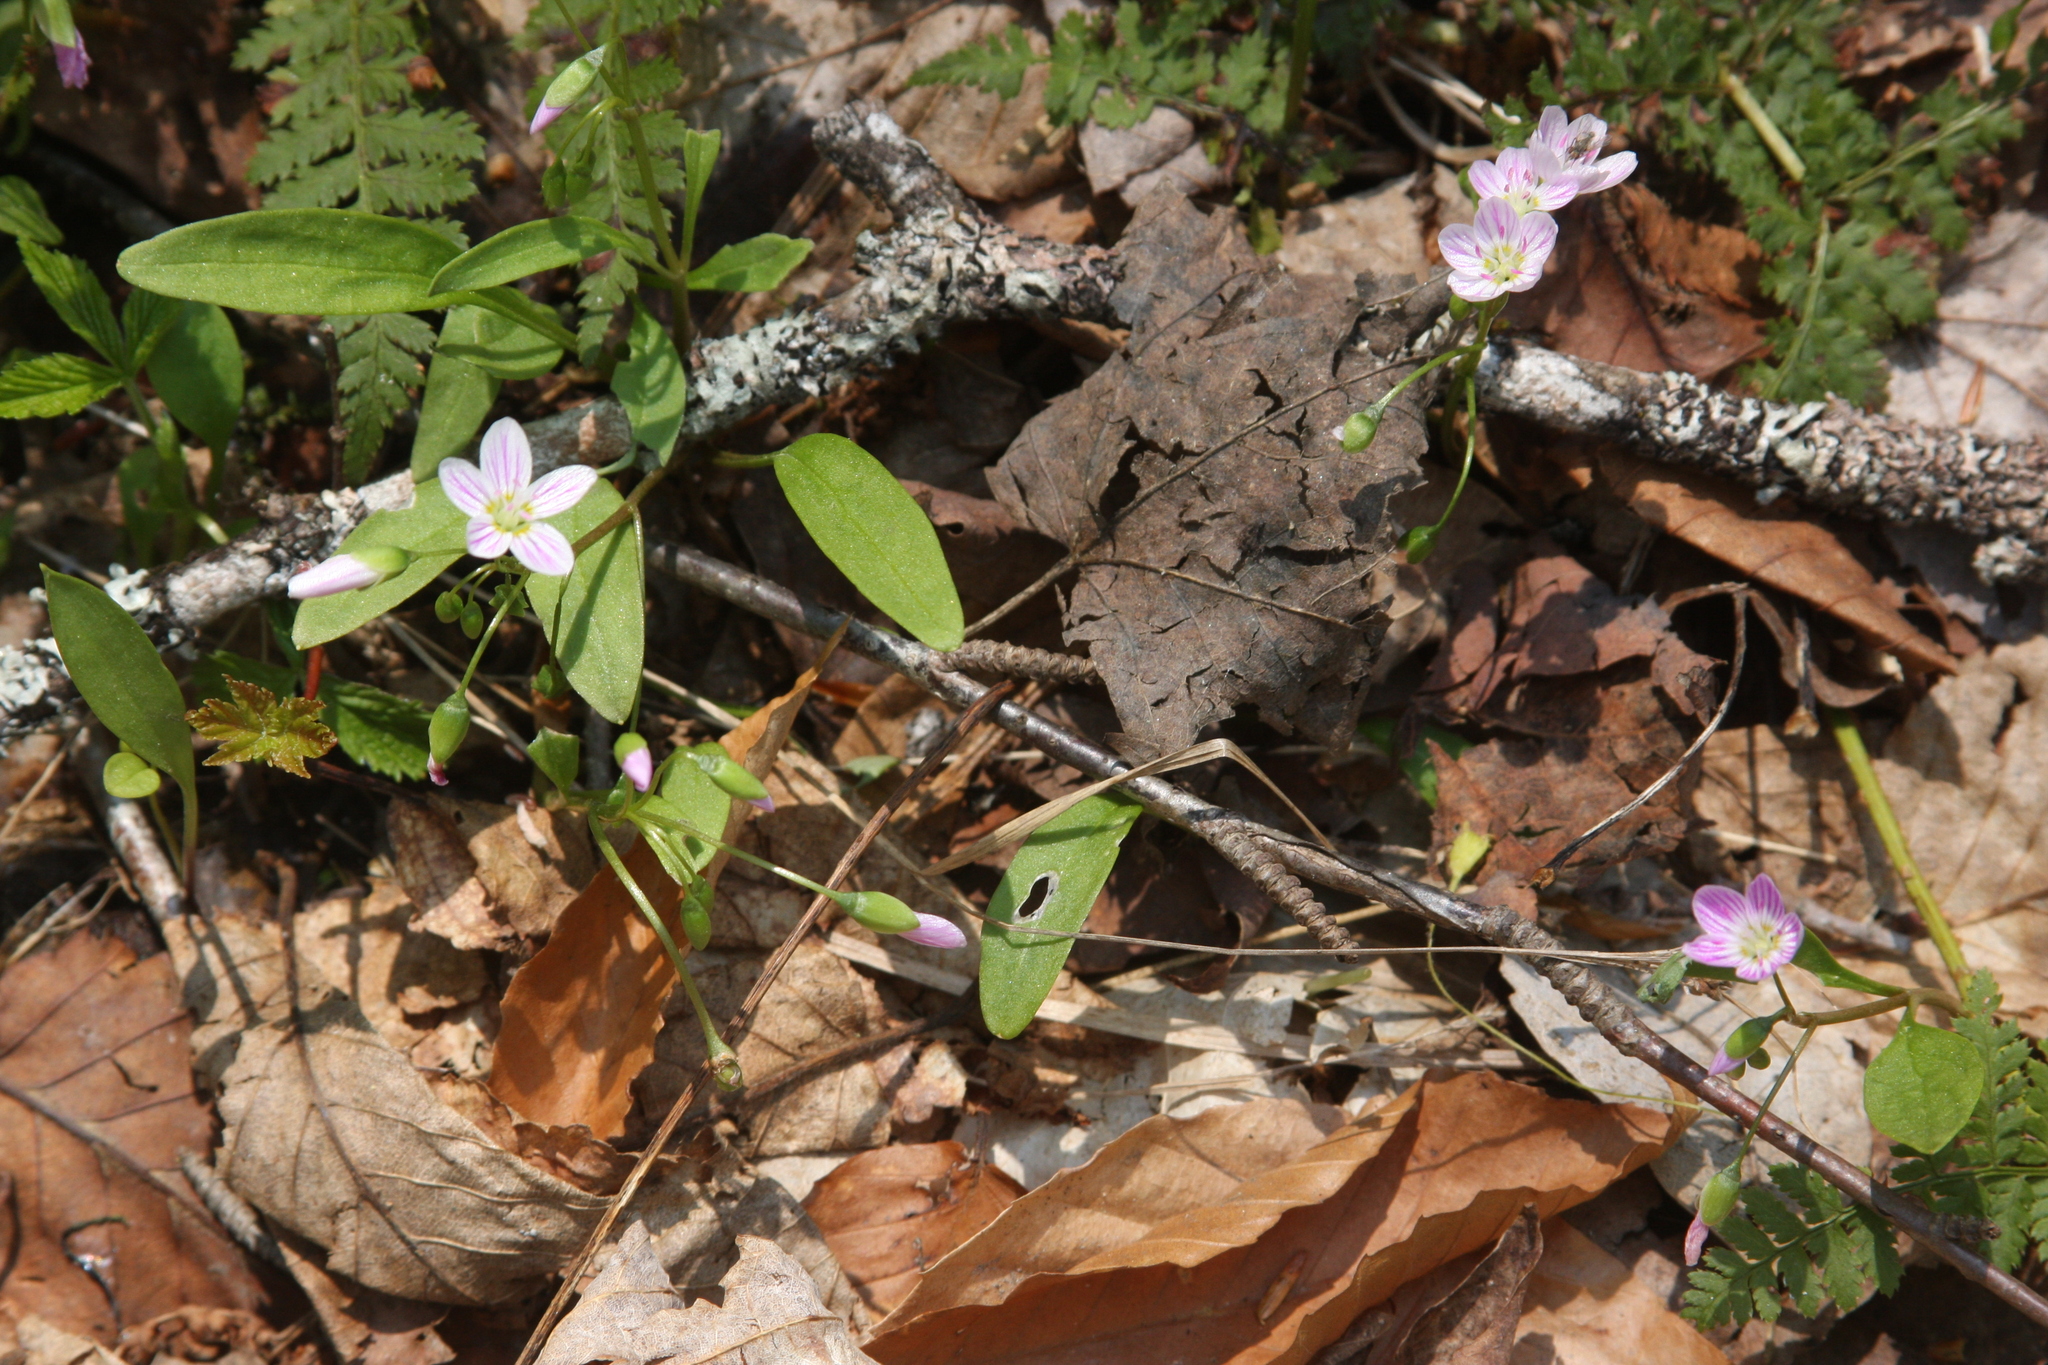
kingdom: Plantae
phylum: Tracheophyta
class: Magnoliopsida
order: Caryophyllales
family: Montiaceae
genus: Claytonia
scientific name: Claytonia caroliniana
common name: Carolina spring beauty
